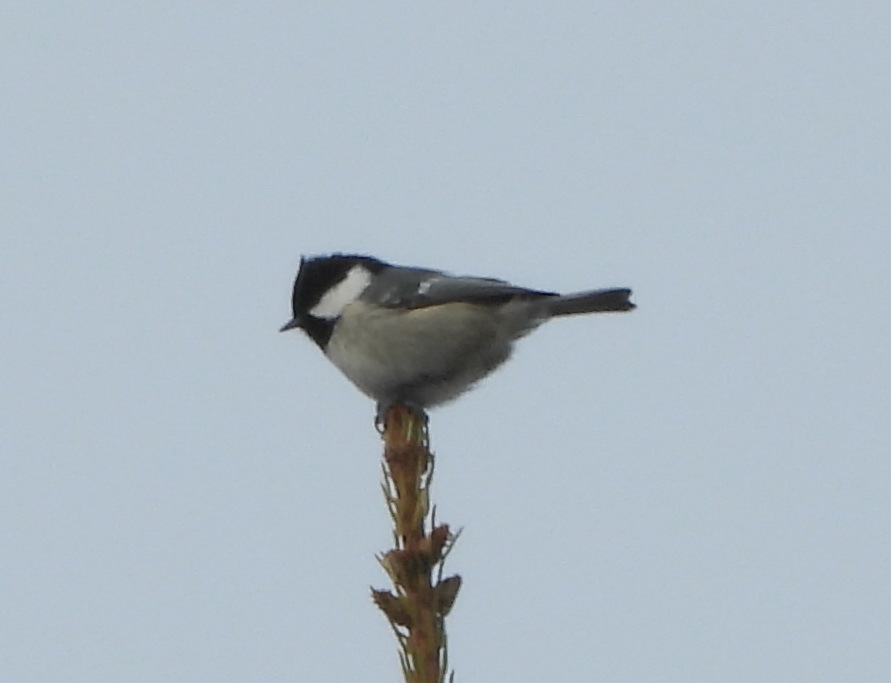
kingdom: Animalia
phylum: Chordata
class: Aves
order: Passeriformes
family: Paridae
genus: Periparus
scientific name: Periparus ater
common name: Coal tit
